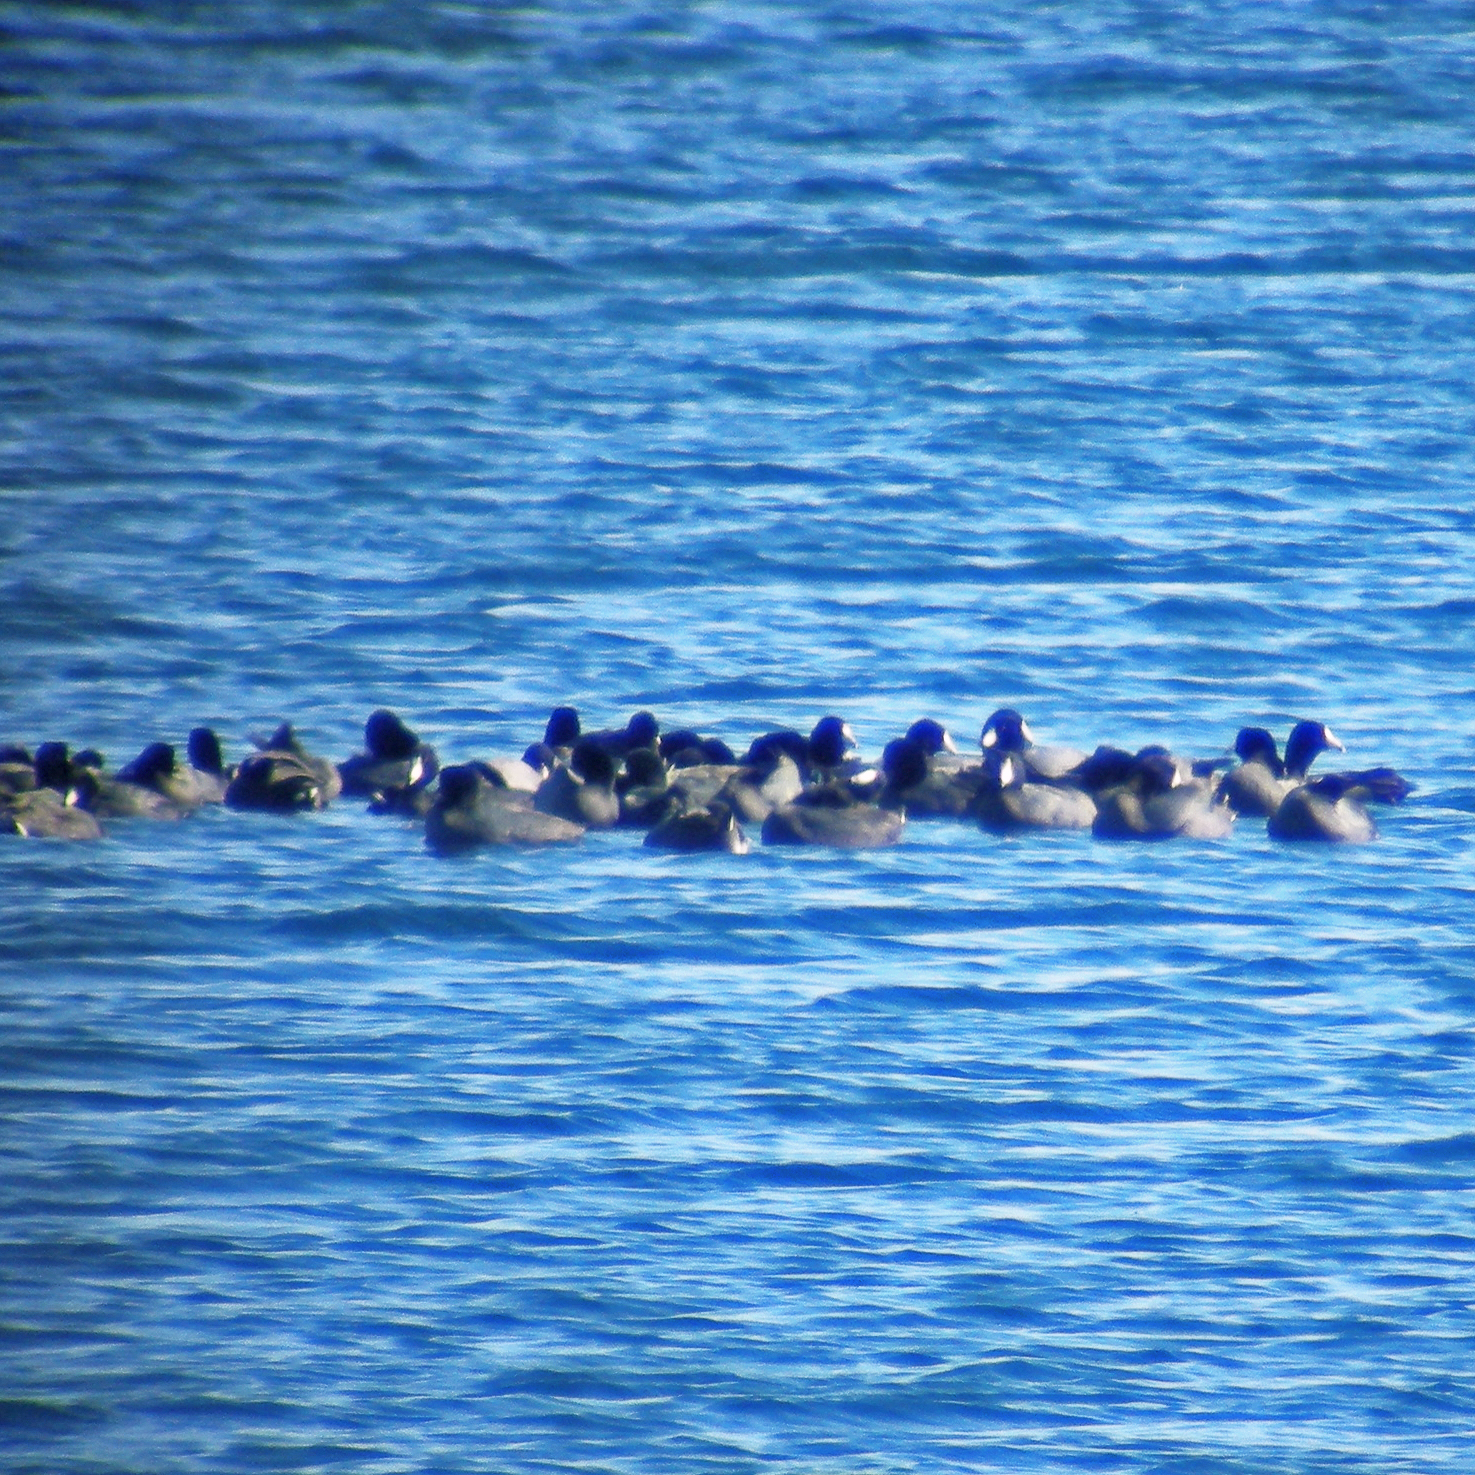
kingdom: Animalia
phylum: Chordata
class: Aves
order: Gruiformes
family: Rallidae
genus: Fulica
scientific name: Fulica americana
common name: American coot
